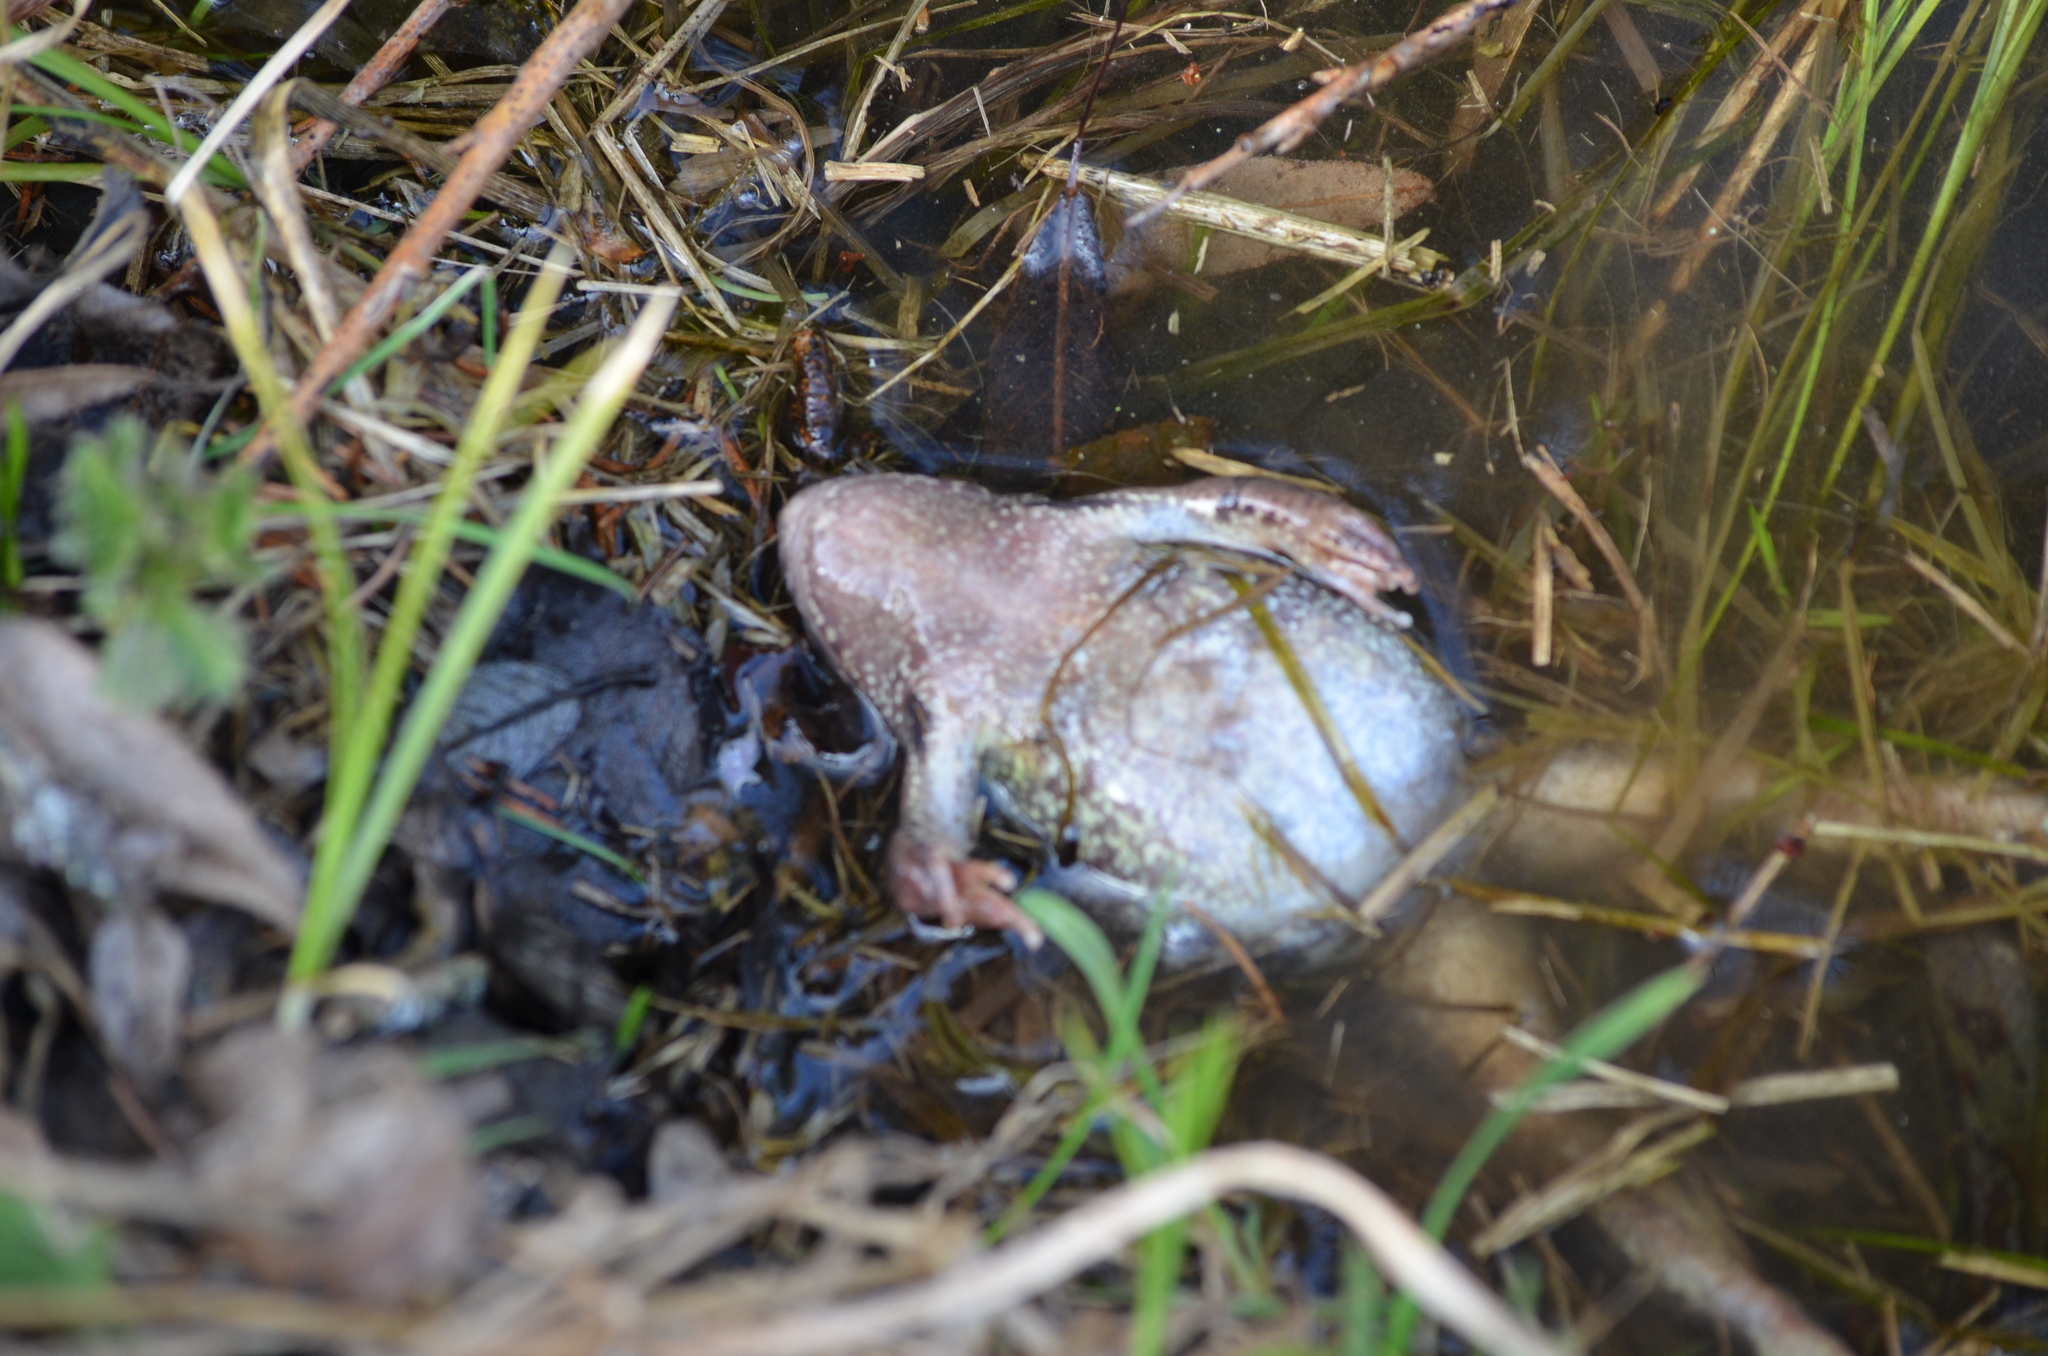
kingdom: Animalia
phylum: Chordata
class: Amphibia
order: Anura
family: Ranidae
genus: Rana
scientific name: Rana temporaria
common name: Common frog
